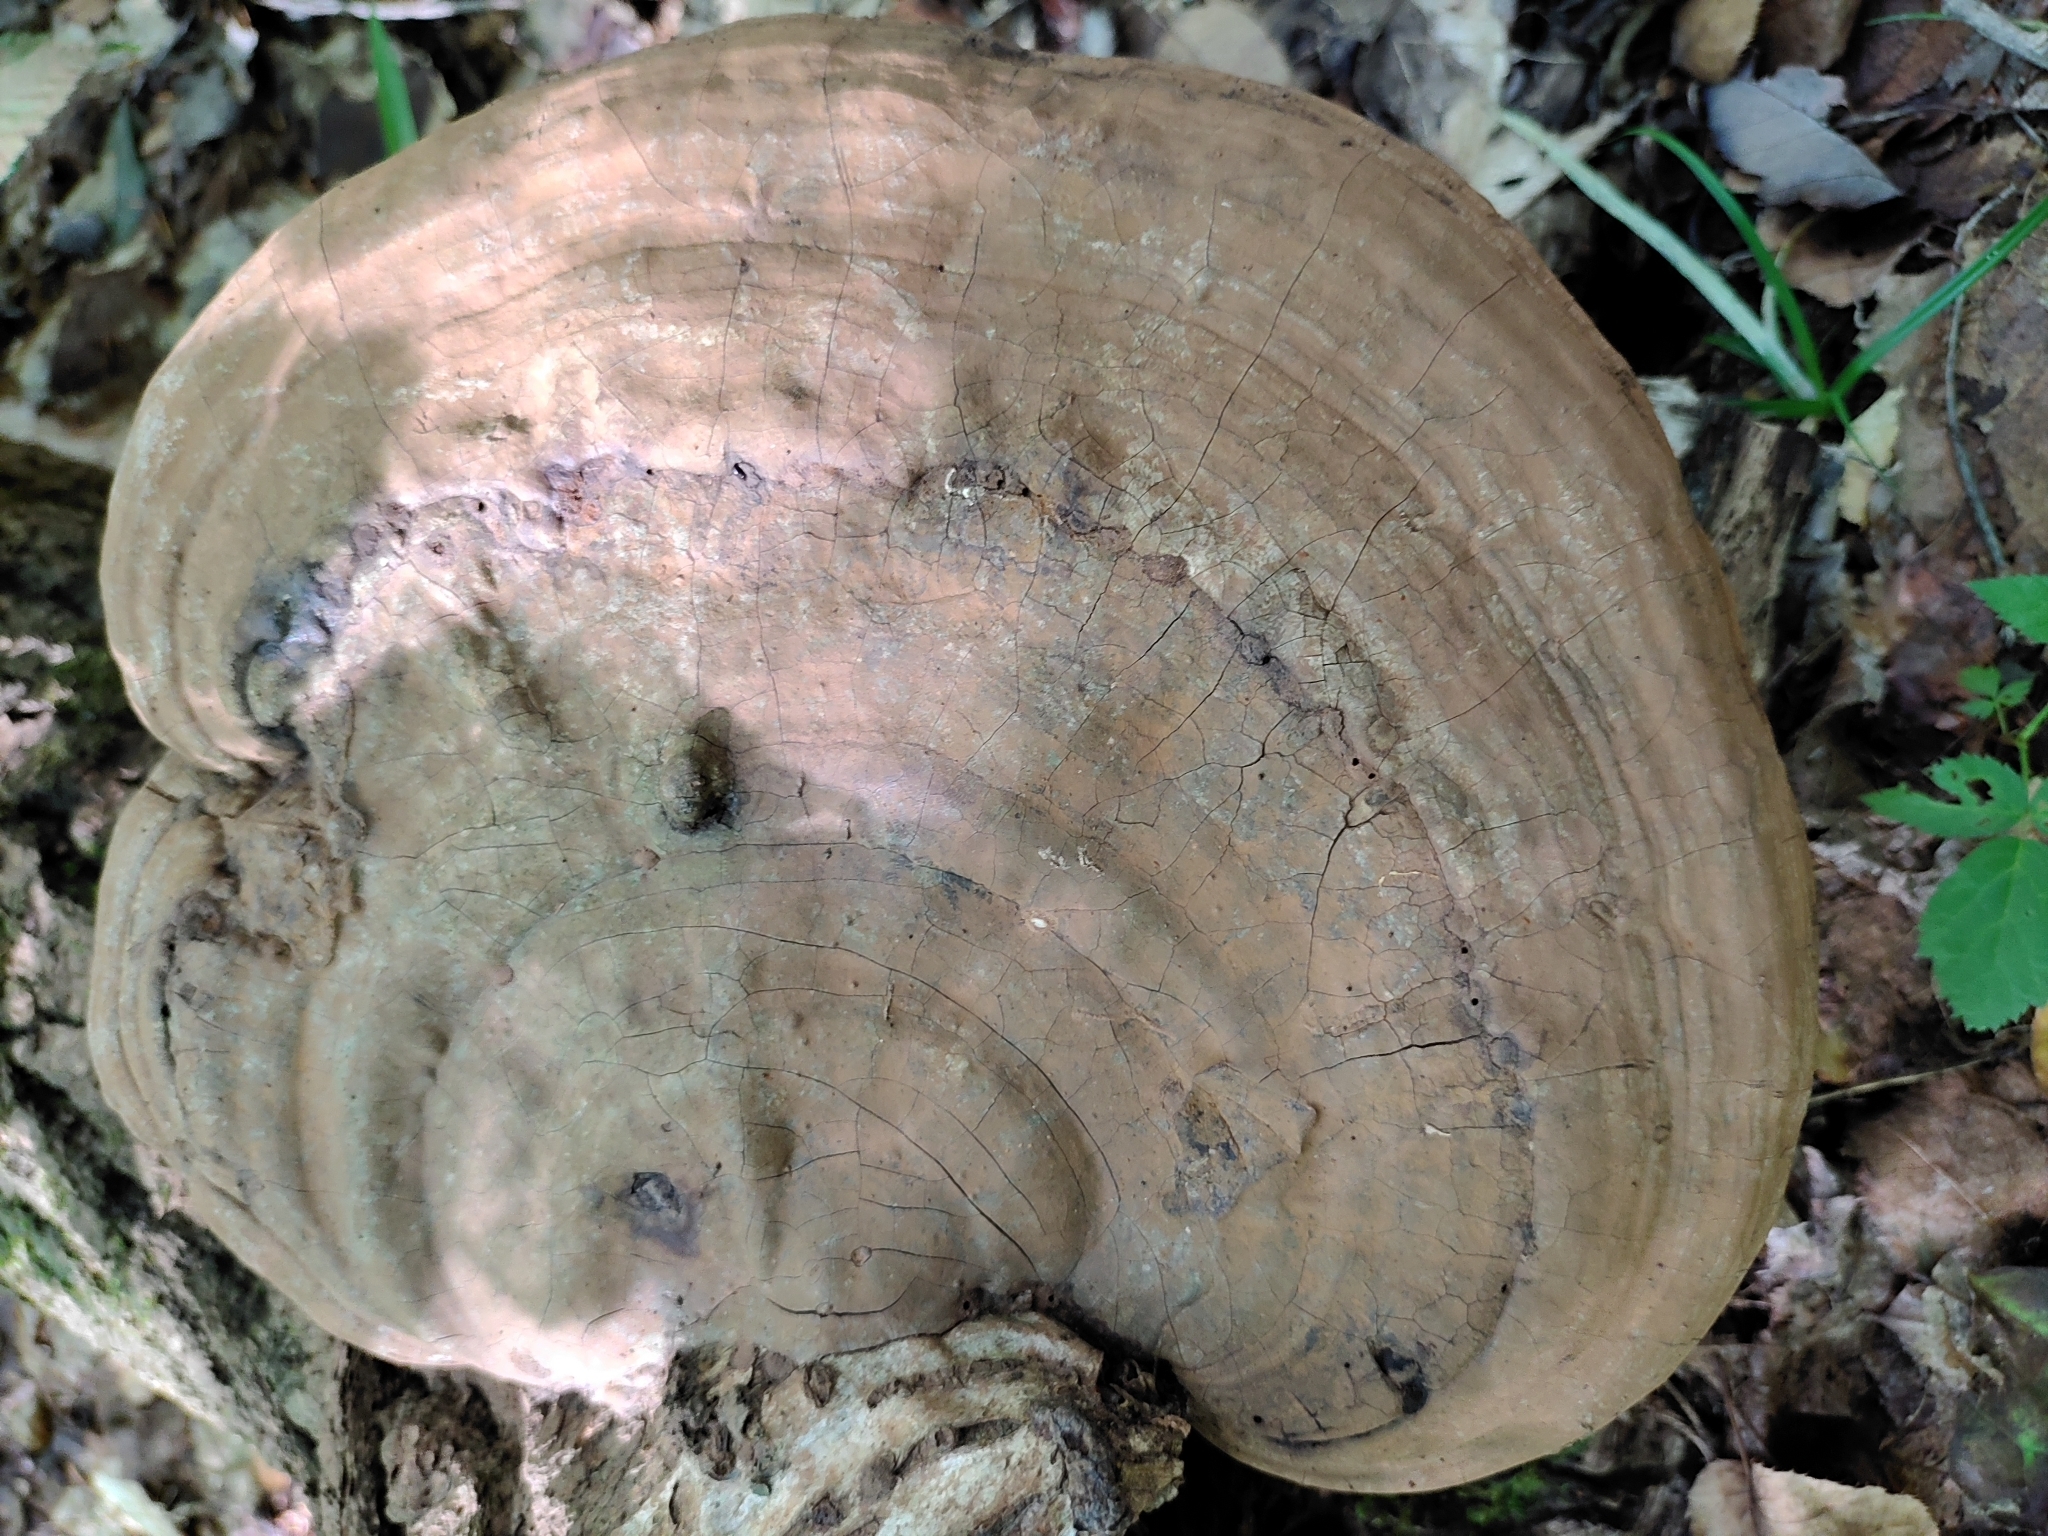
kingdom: Fungi
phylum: Basidiomycota
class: Agaricomycetes
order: Polyporales
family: Polyporaceae
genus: Ganoderma
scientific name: Ganoderma lobatum
